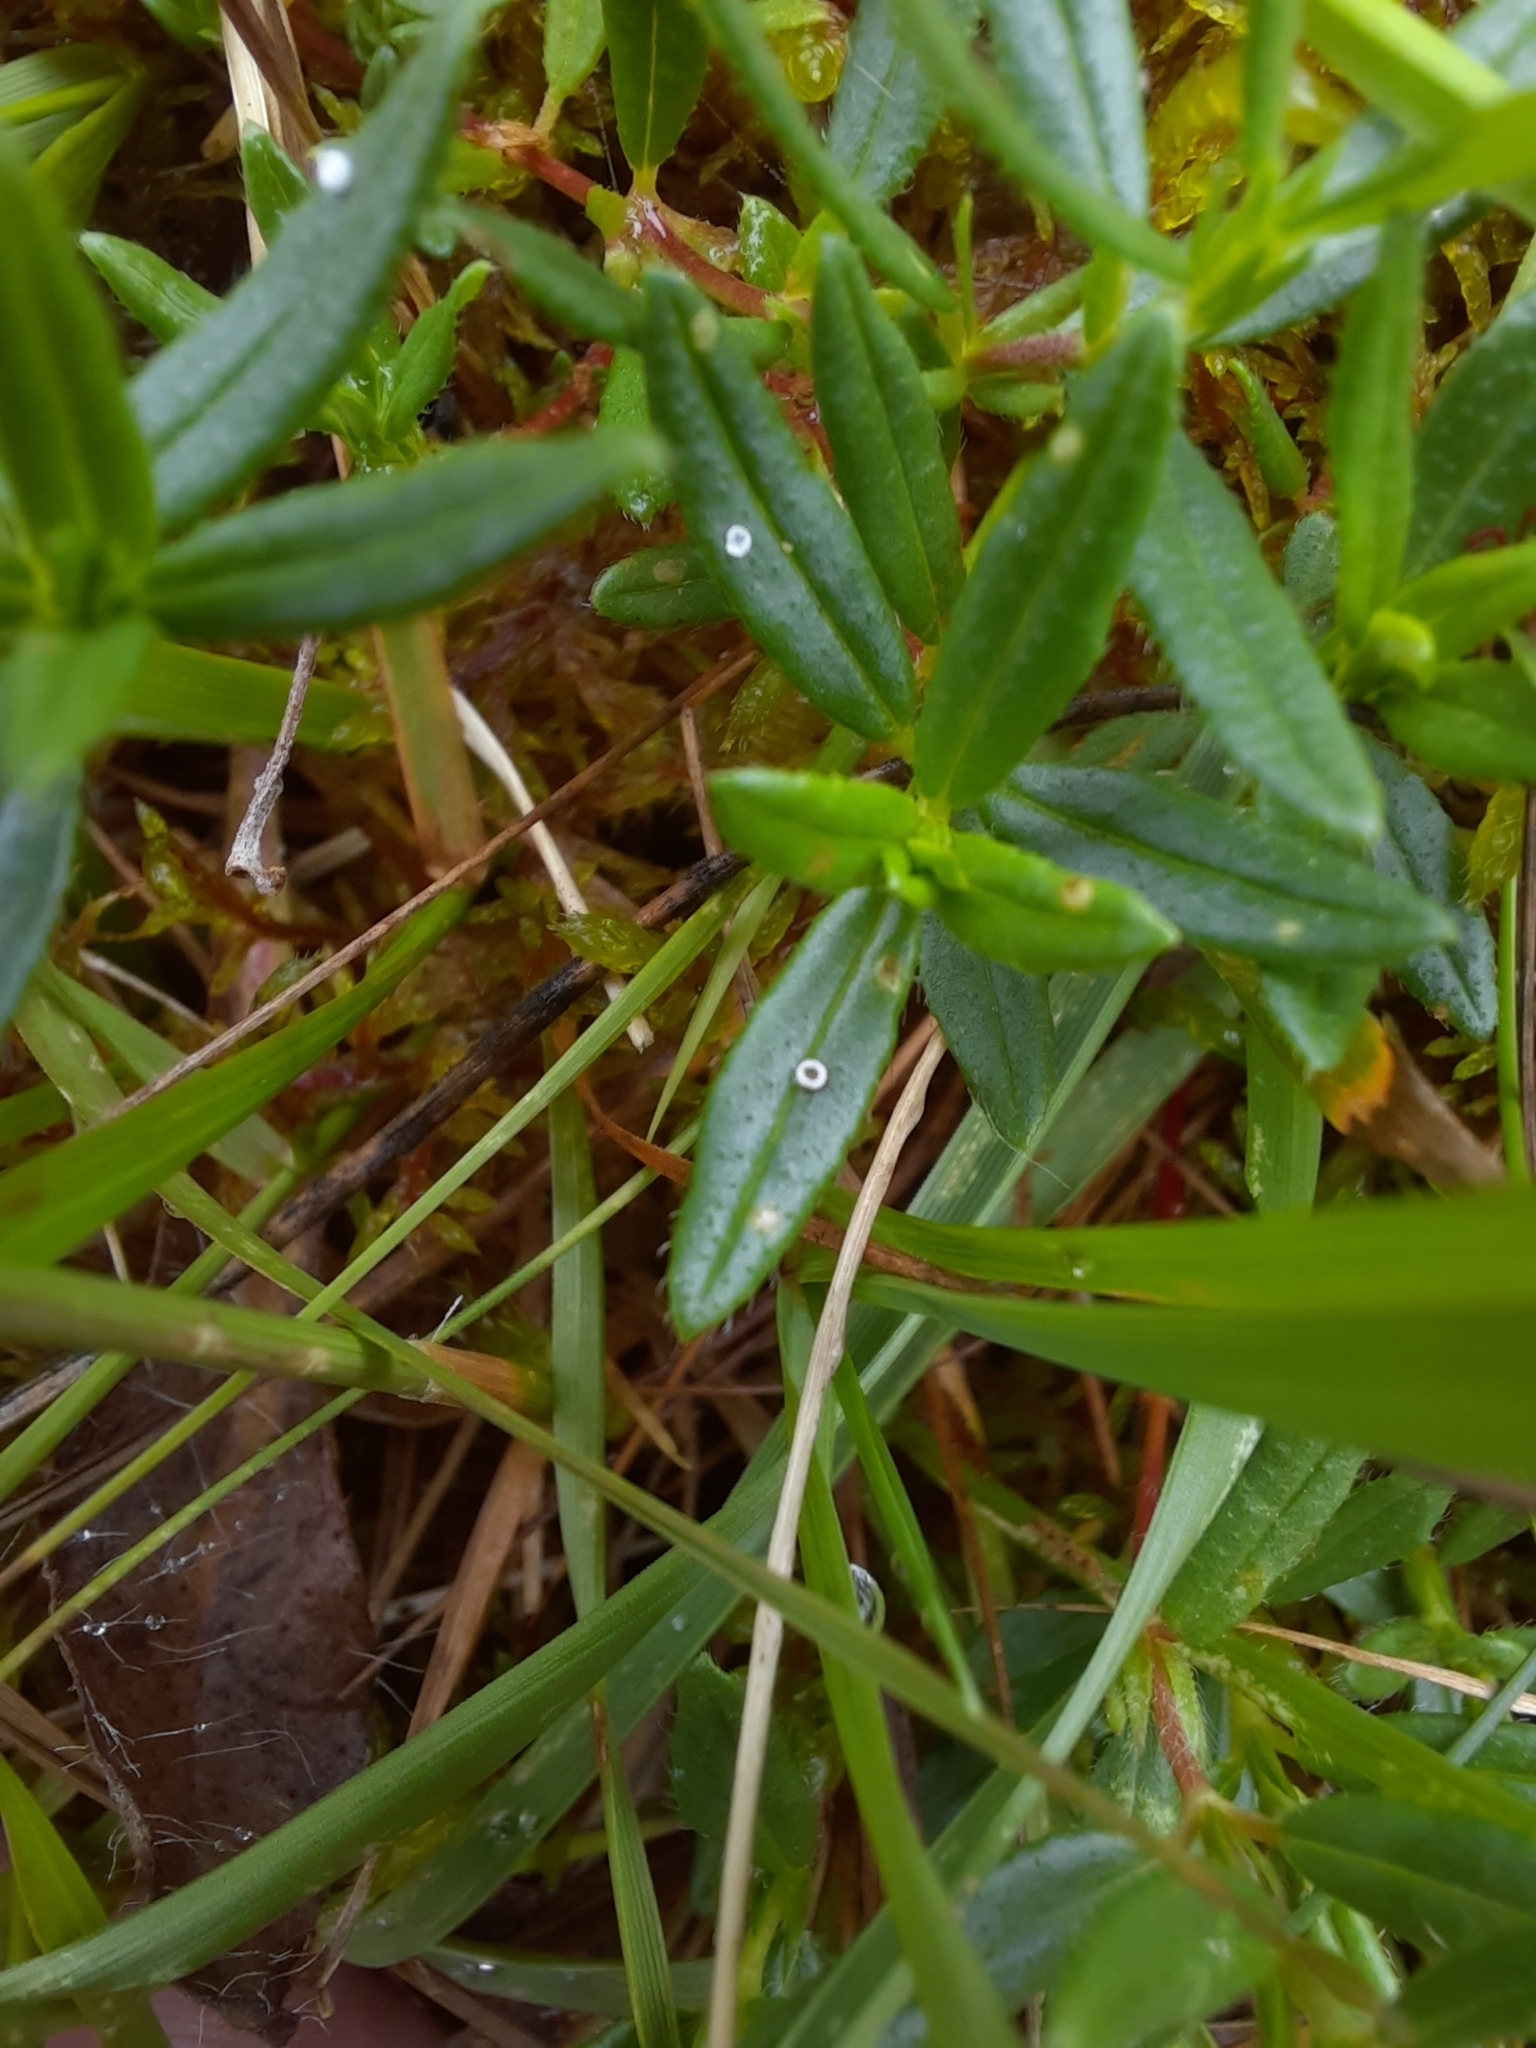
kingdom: Animalia
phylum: Arthropoda
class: Insecta
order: Lepidoptera
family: Lycaenidae
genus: Aricia
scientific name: Aricia artaxerxes
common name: Northern brown argus
